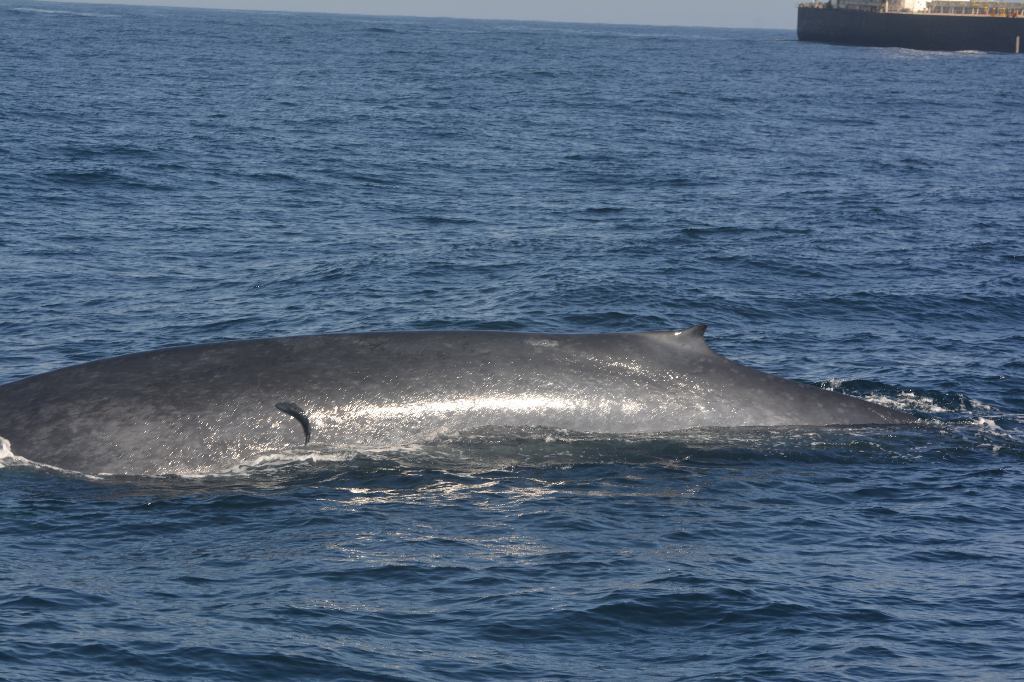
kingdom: Animalia
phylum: Chordata
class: Mammalia
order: Cetacea
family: Balaenopteridae
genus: Balaenoptera
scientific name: Balaenoptera musculus
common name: Blue whale
